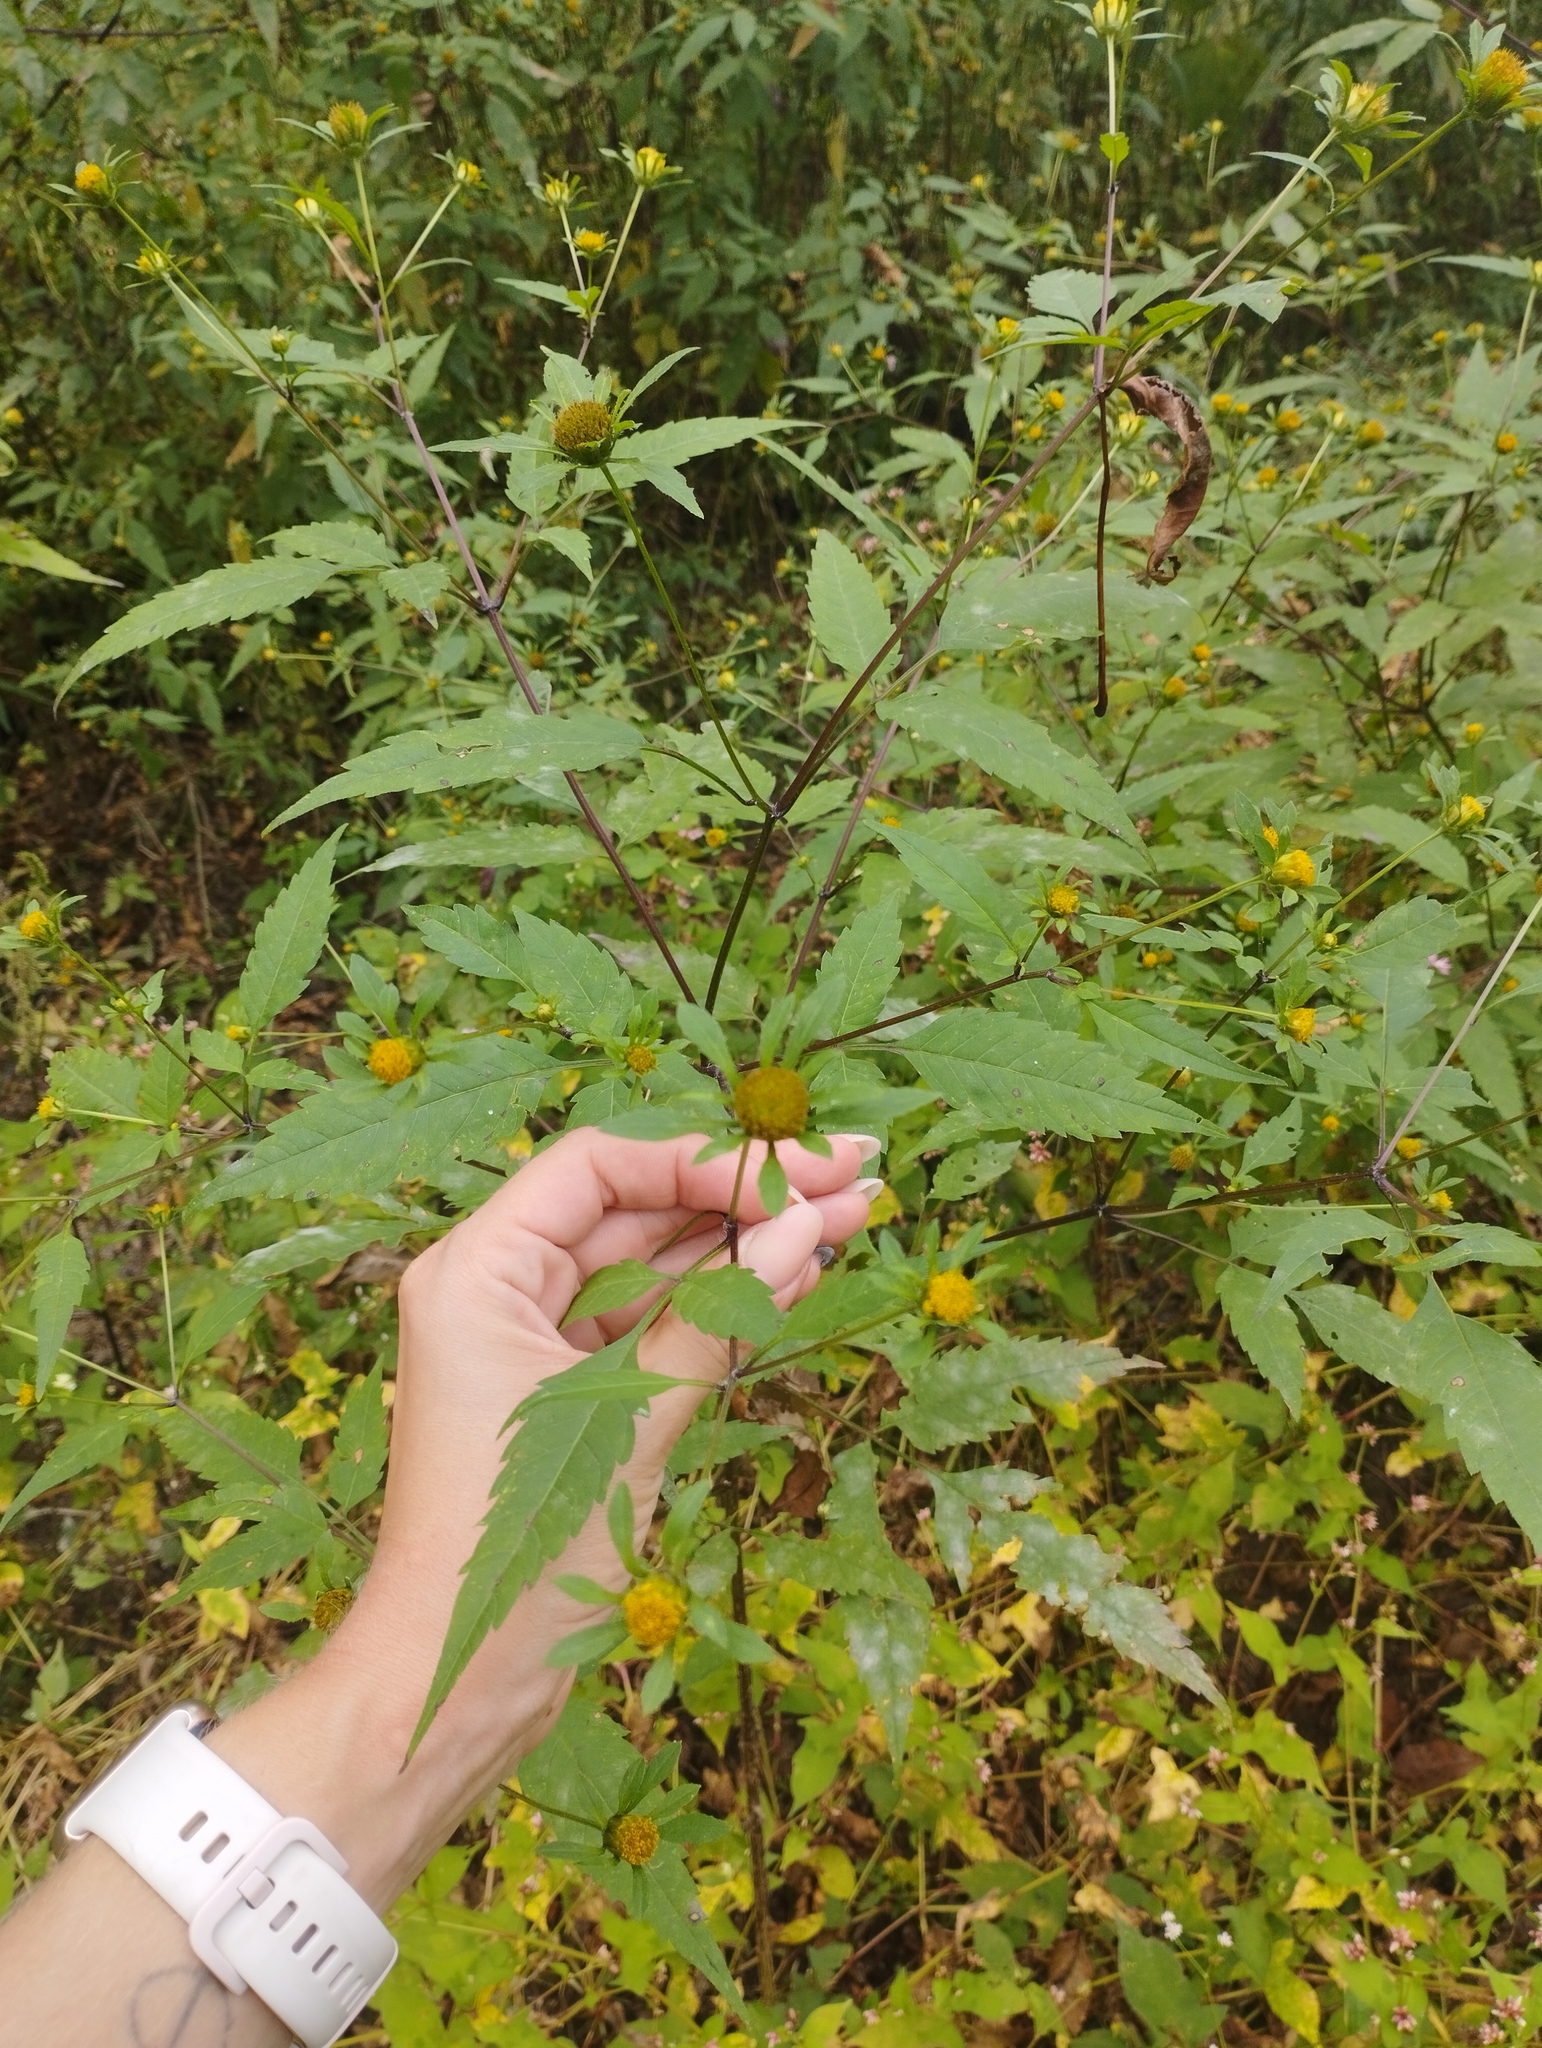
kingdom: Plantae
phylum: Tracheophyta
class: Magnoliopsida
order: Asterales
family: Asteraceae
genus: Bidens
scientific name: Bidens frondosa
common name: Beggarticks
